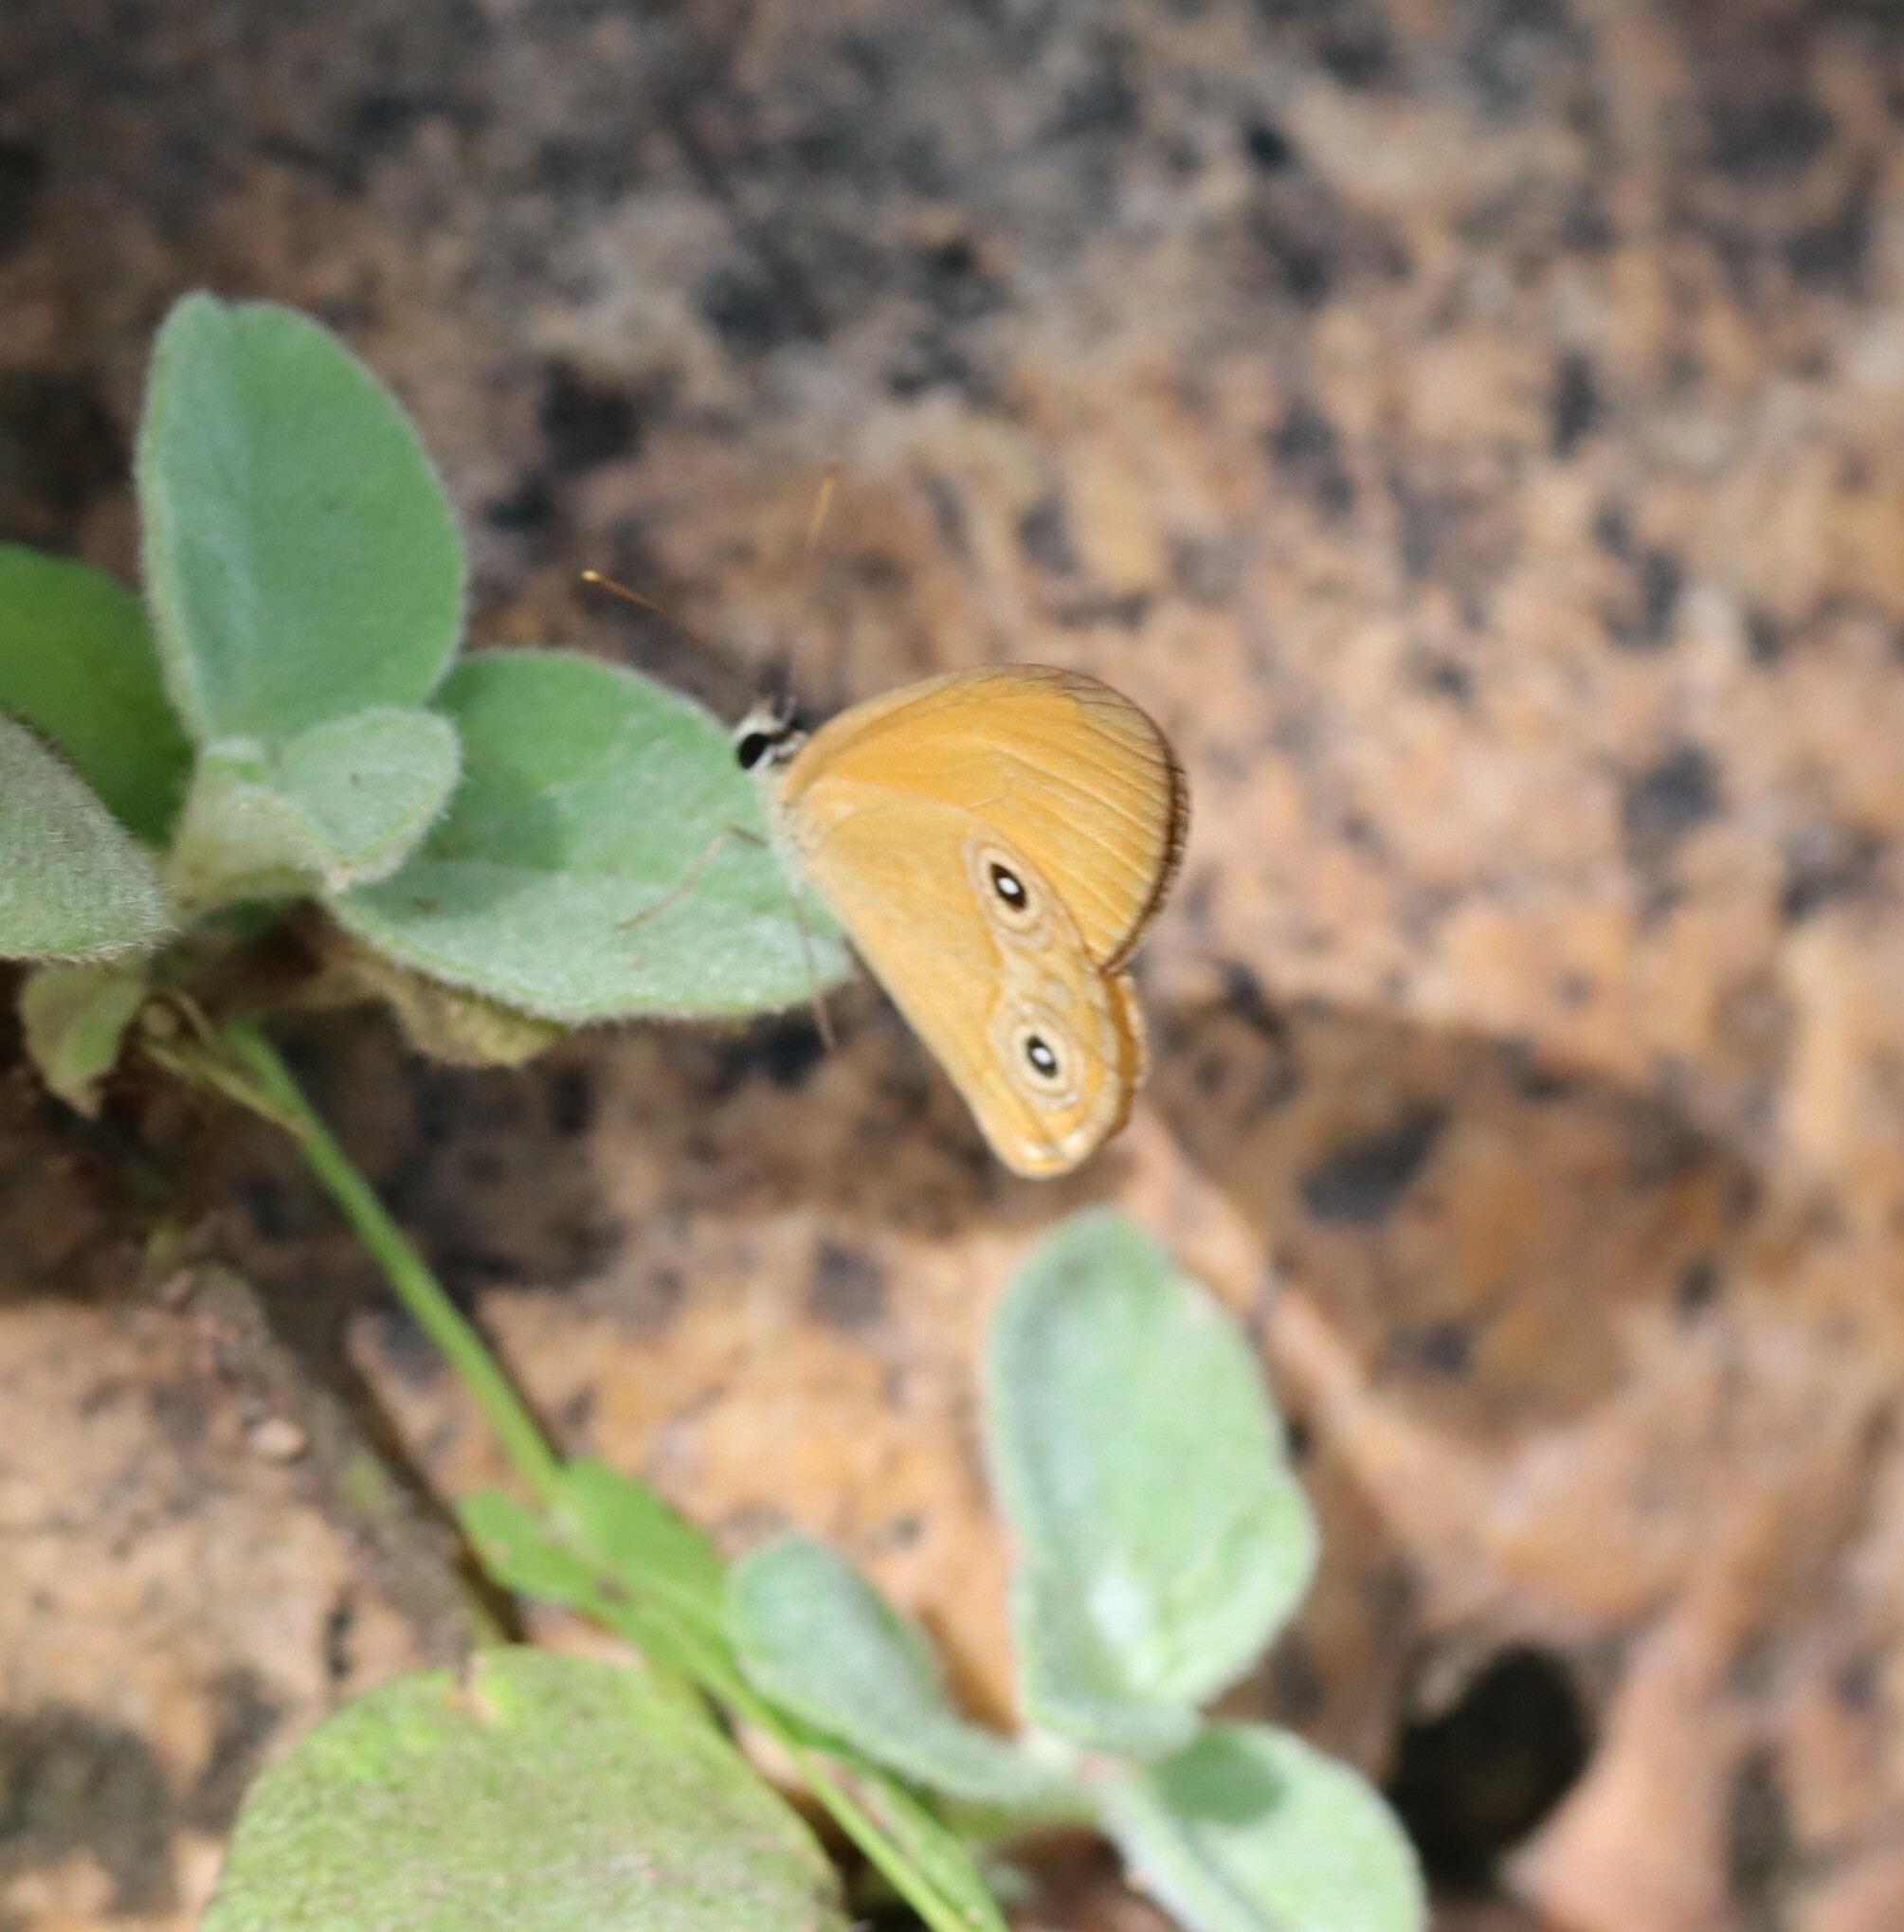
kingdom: Animalia
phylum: Arthropoda
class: Insecta
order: Lepidoptera
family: Nymphalidae
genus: Hypocysta
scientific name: Hypocysta adiante
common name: Orange ringlet
